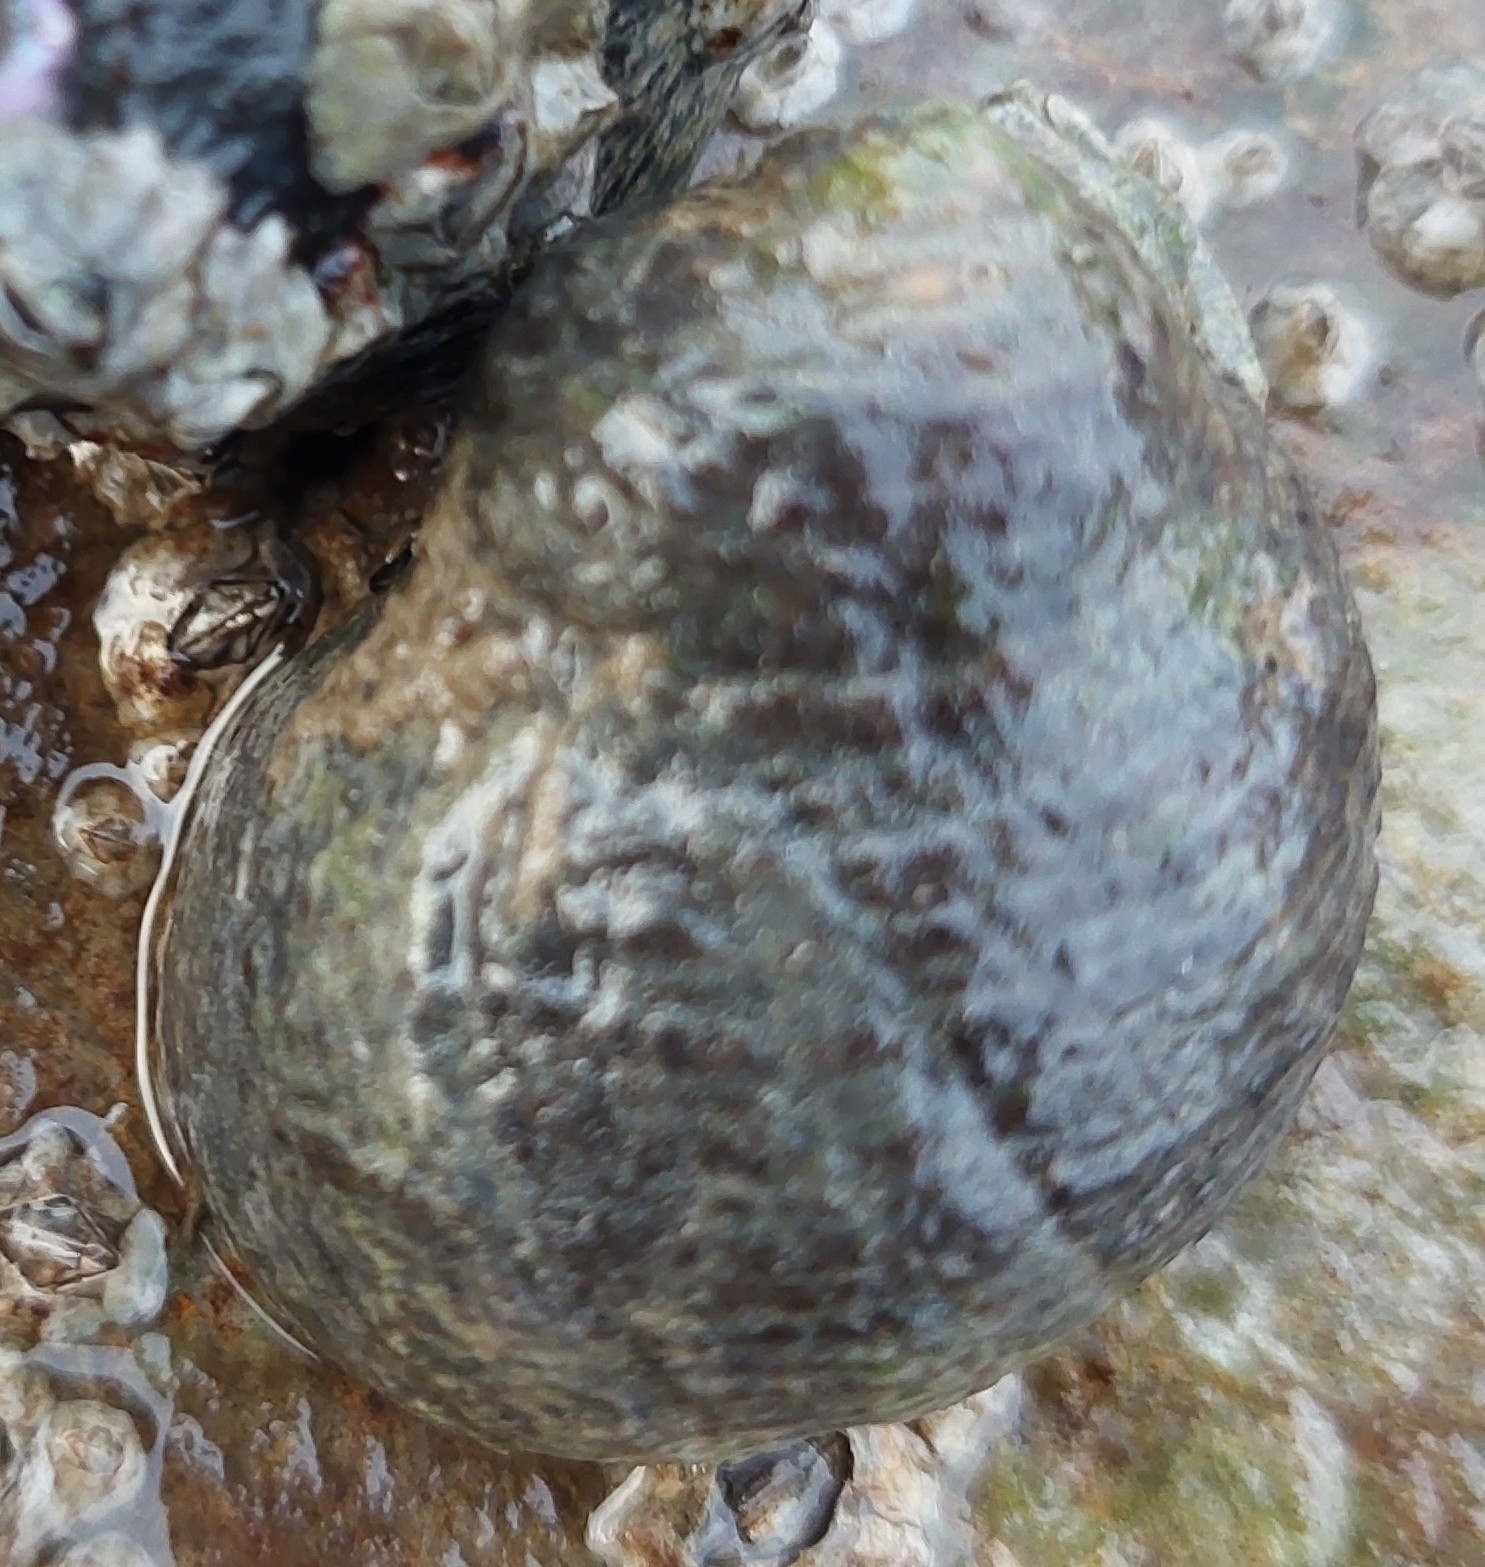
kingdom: Animalia
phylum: Mollusca
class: Gastropoda
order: Littorinimorpha
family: Littorinidae
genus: Littorina
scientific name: Littorina littorea
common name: Common periwinkle
